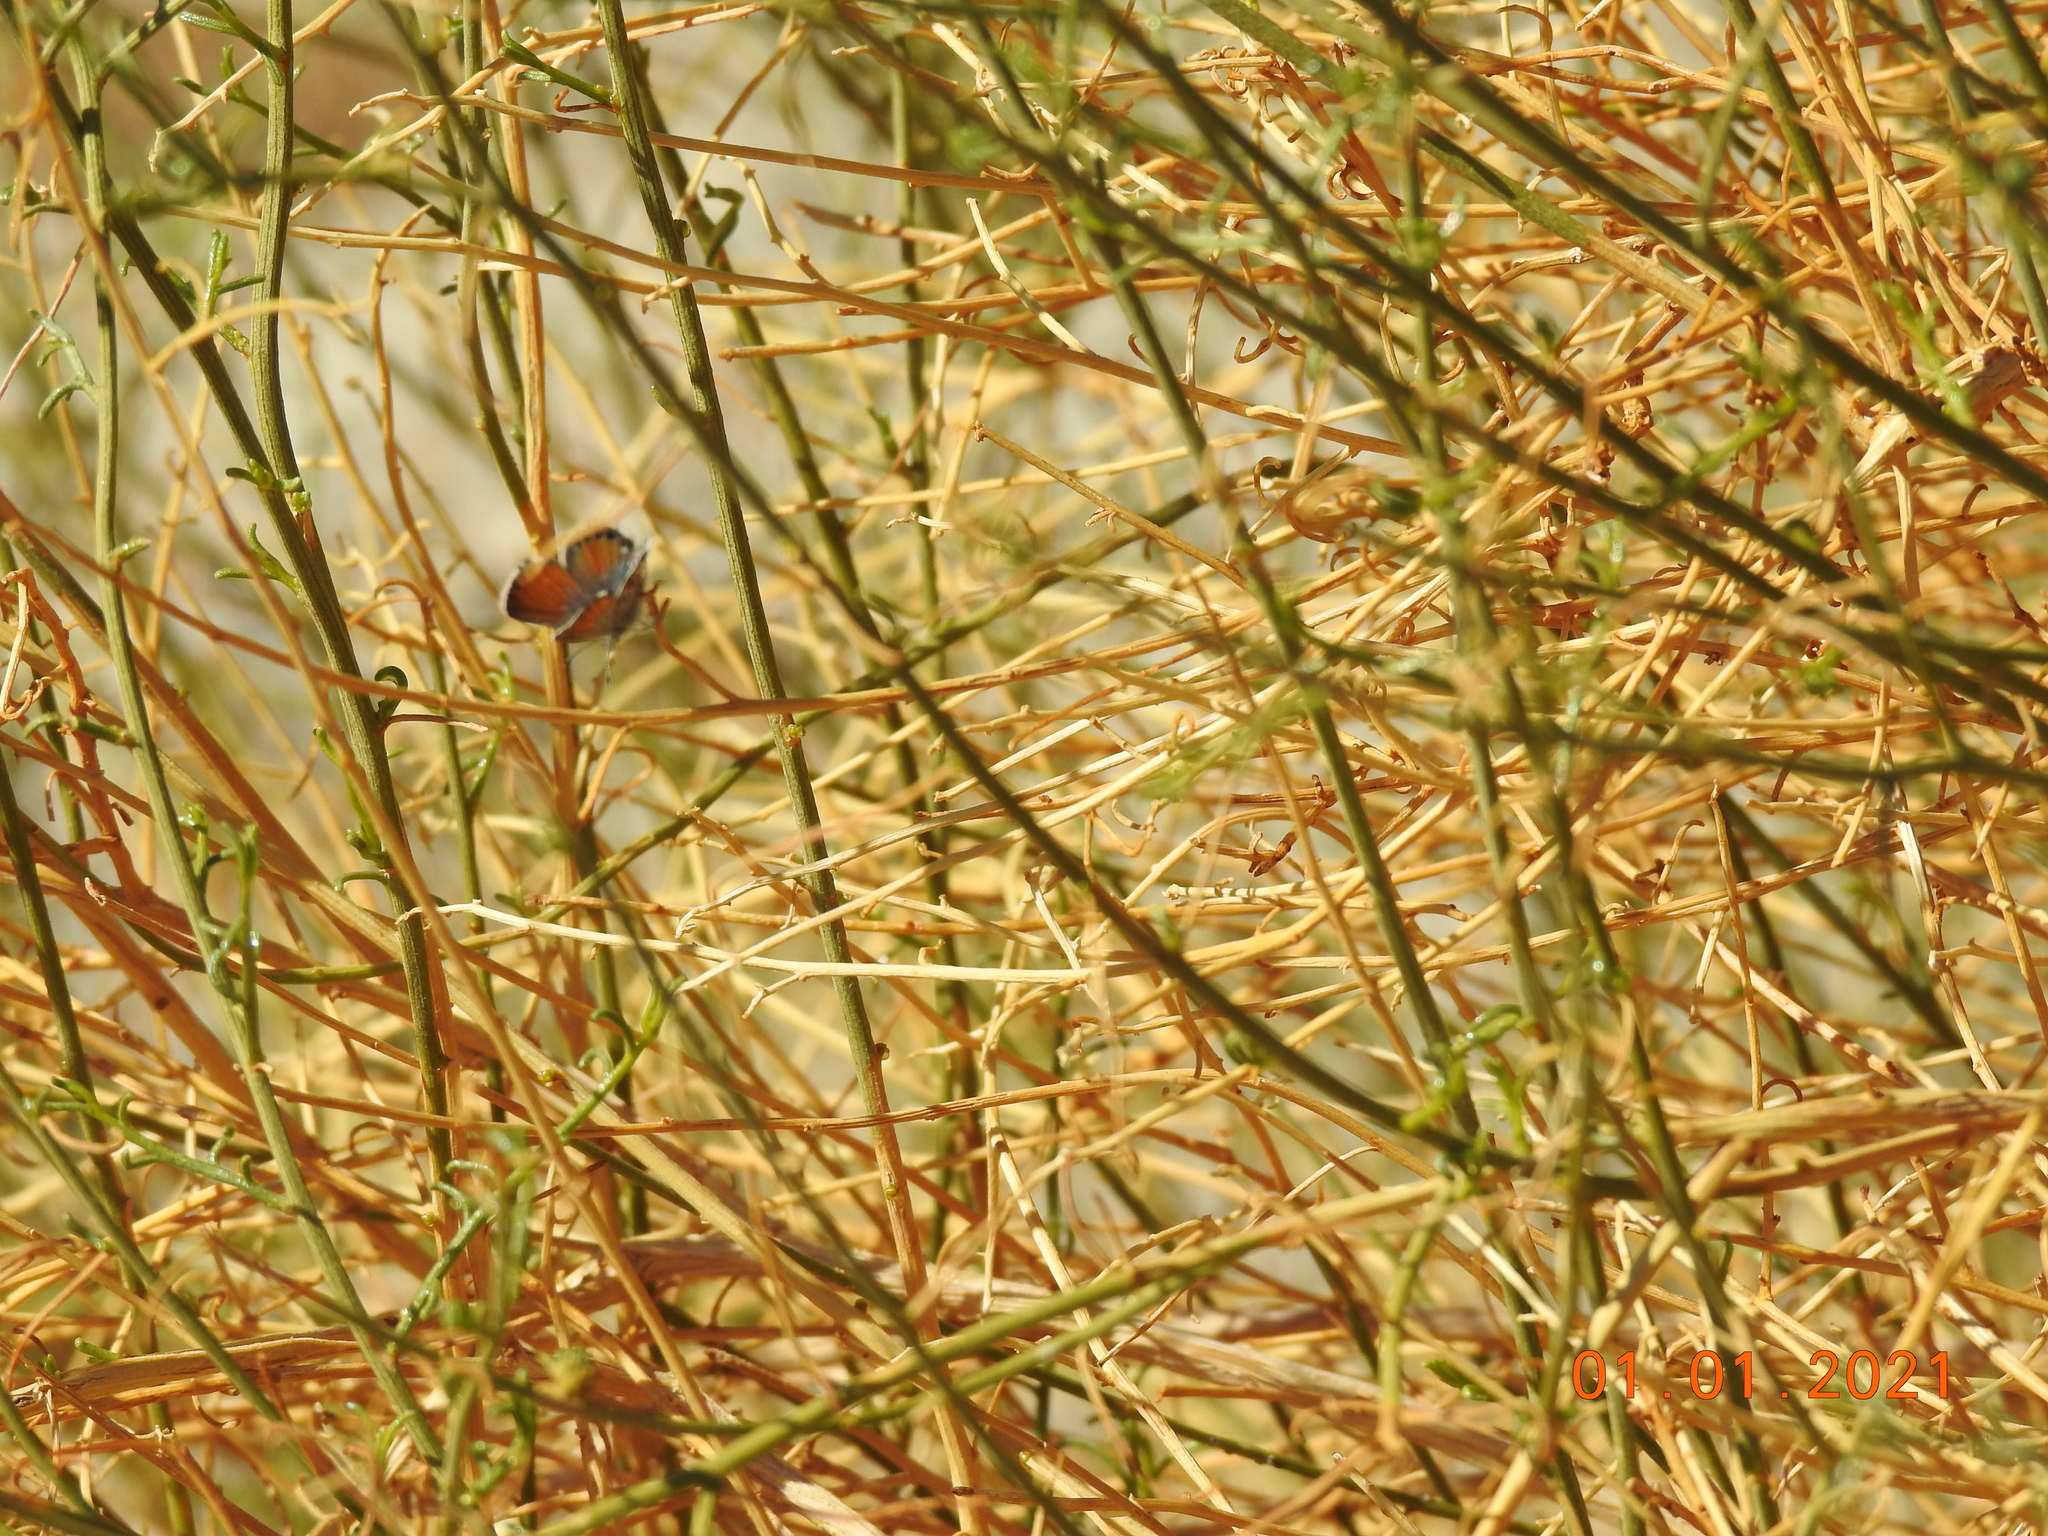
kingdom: Animalia
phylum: Arthropoda
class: Insecta
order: Lepidoptera
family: Lycaenidae
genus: Brephidium
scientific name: Brephidium exilis
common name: Pygmy blue
